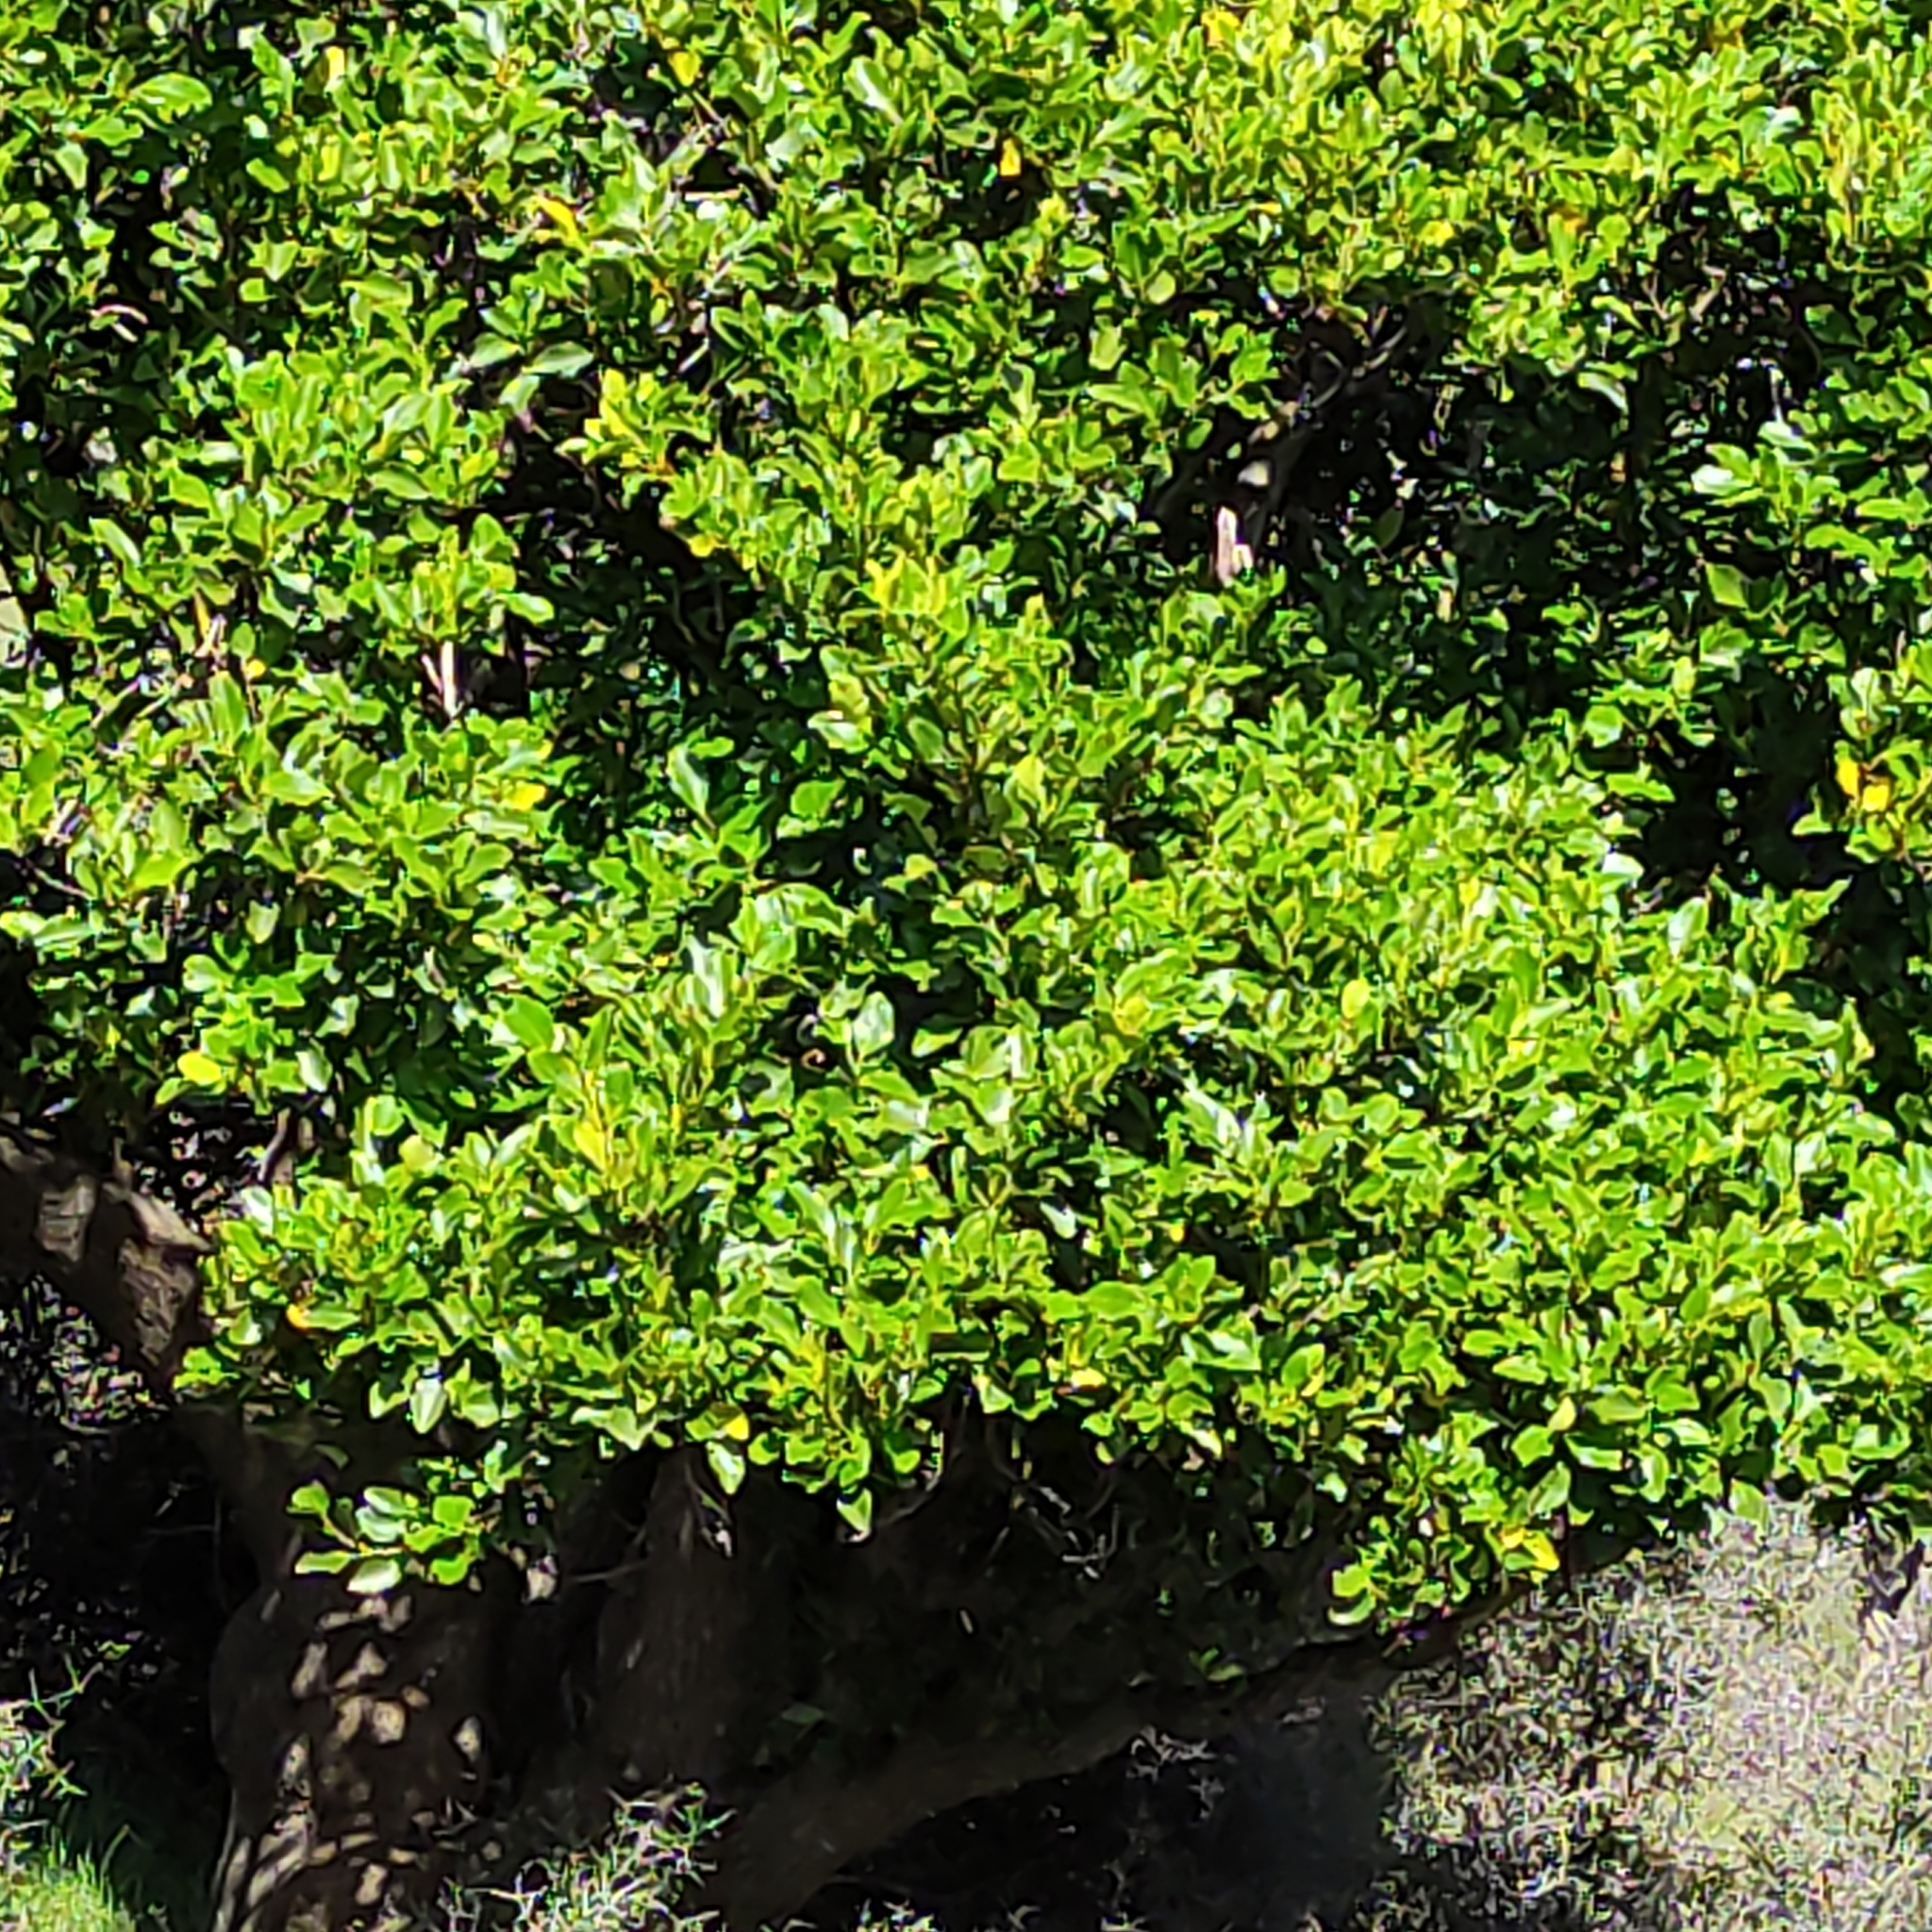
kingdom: Plantae
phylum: Tracheophyta
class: Magnoliopsida
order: Apiales
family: Griseliniaceae
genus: Griselinia
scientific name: Griselinia littoralis
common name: New zealand broadleaf
